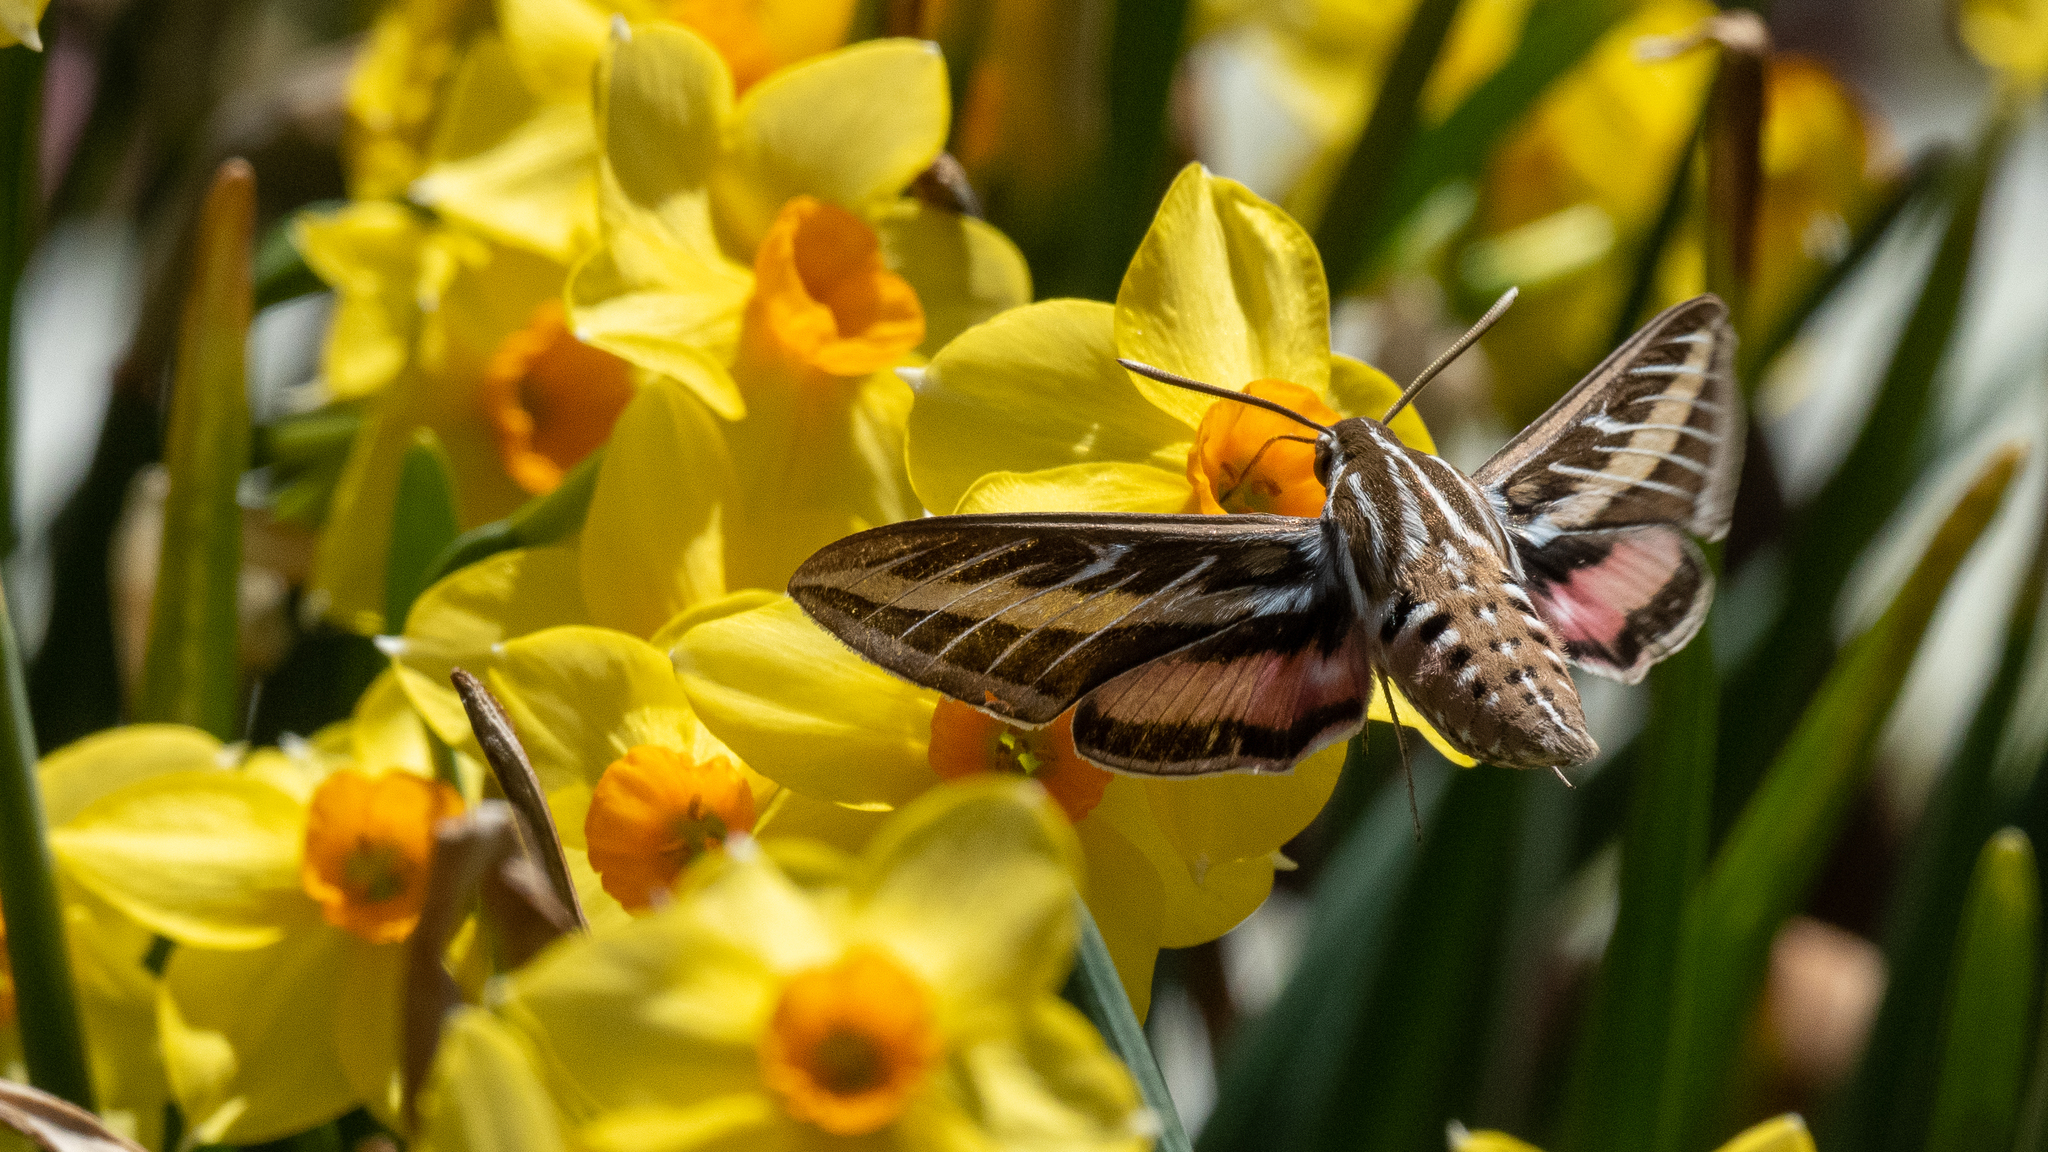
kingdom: Animalia
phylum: Arthropoda
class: Insecta
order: Lepidoptera
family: Sphingidae
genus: Hyles
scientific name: Hyles lineata
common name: White-lined sphinx
